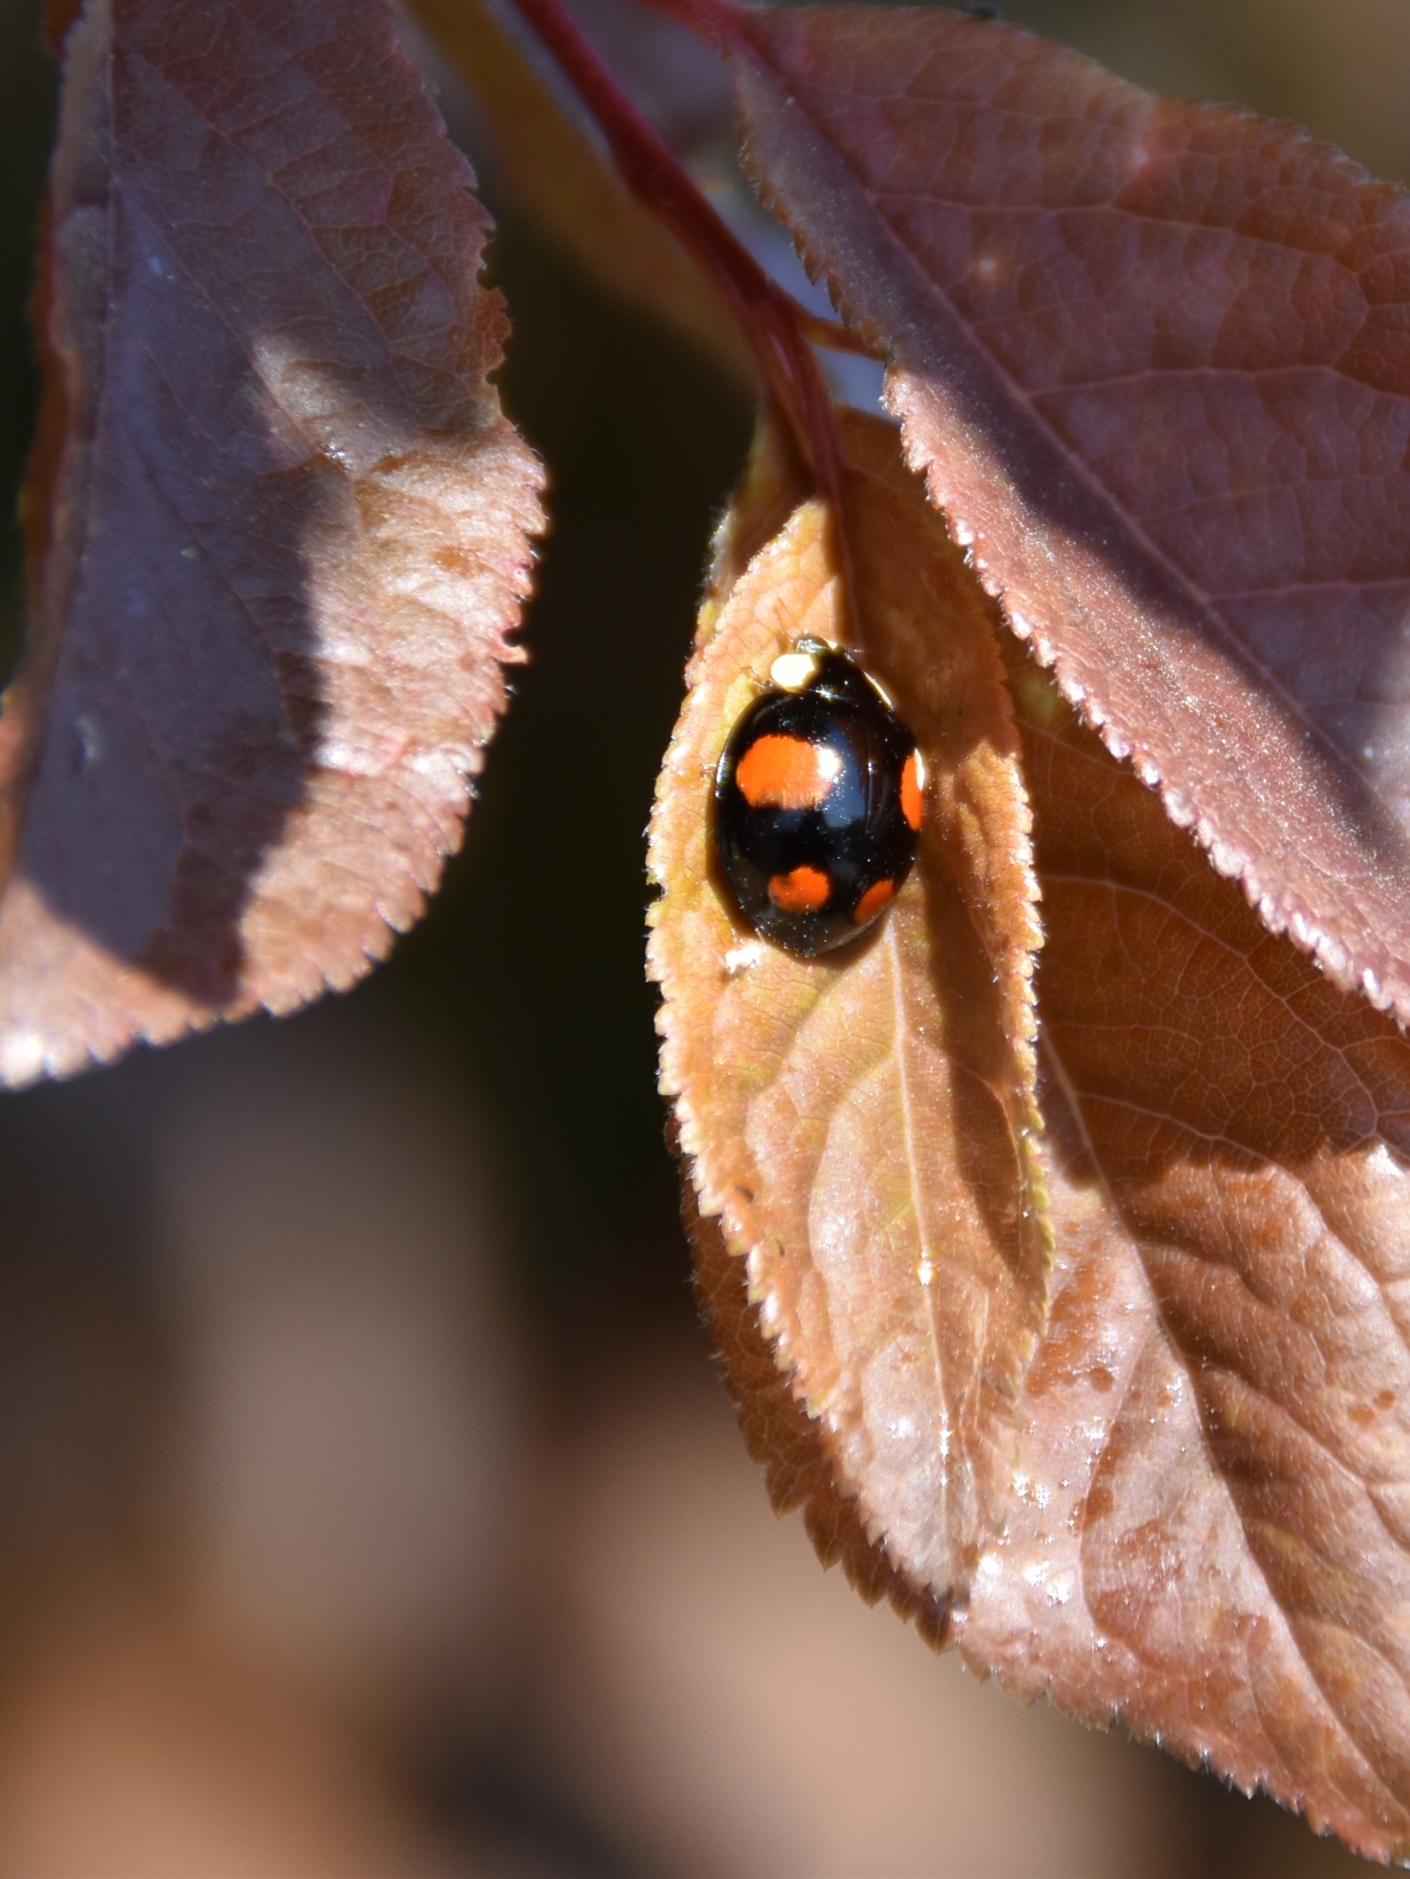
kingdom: Animalia
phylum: Arthropoda
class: Insecta
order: Coleoptera
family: Coccinellidae
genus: Harmonia
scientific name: Harmonia axyridis
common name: Harlequin ladybird
